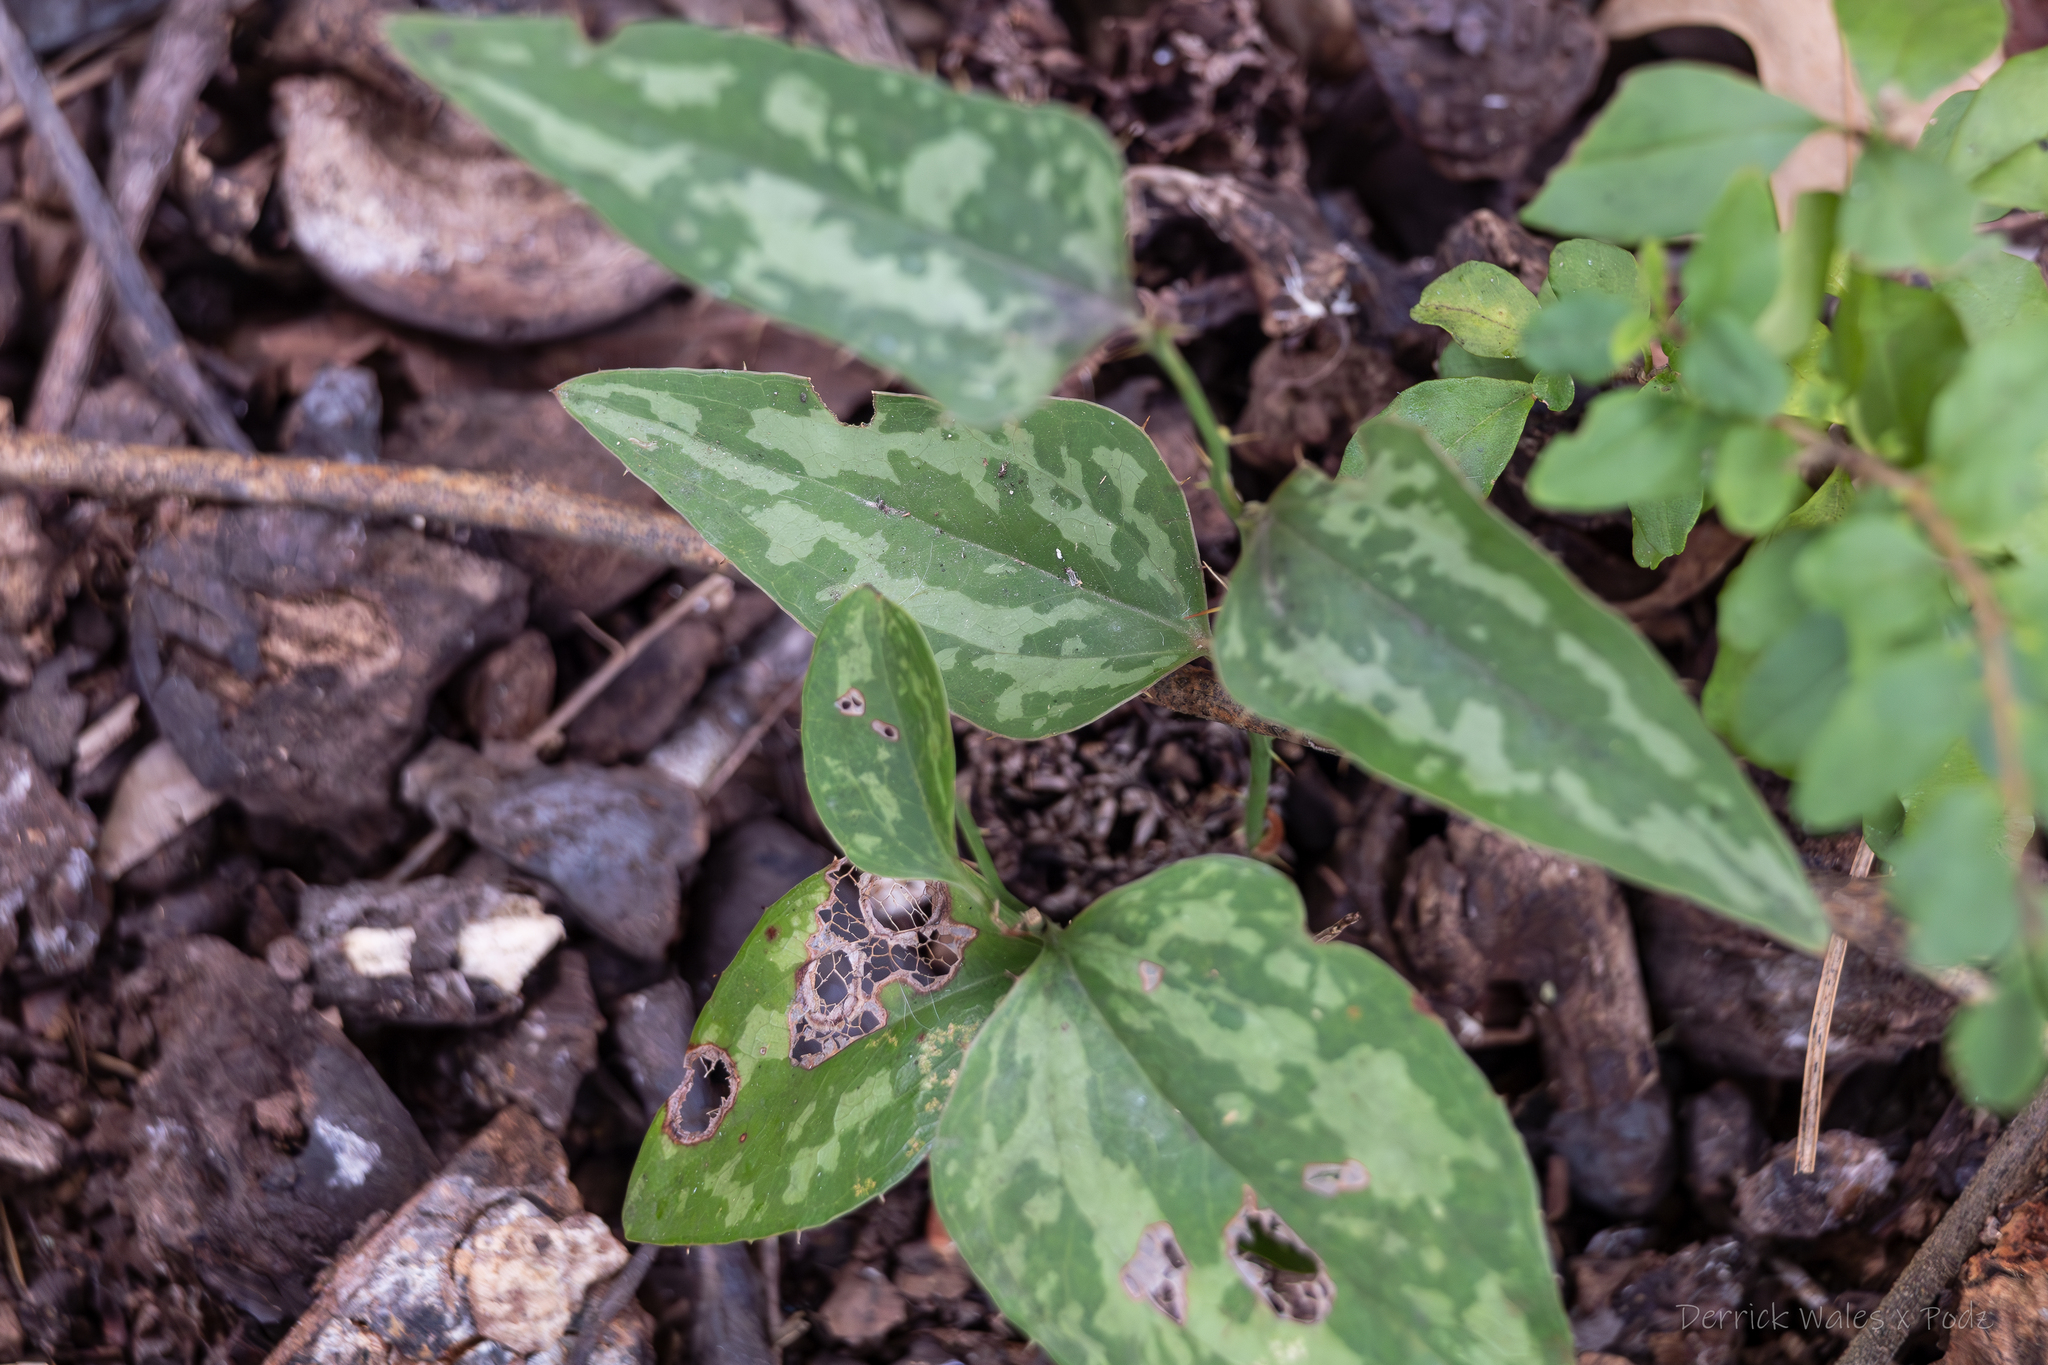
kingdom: Plantae
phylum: Tracheophyta
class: Liliopsida
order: Liliales
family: Smilacaceae
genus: Smilax
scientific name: Smilax bona-nox
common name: Catbrier
